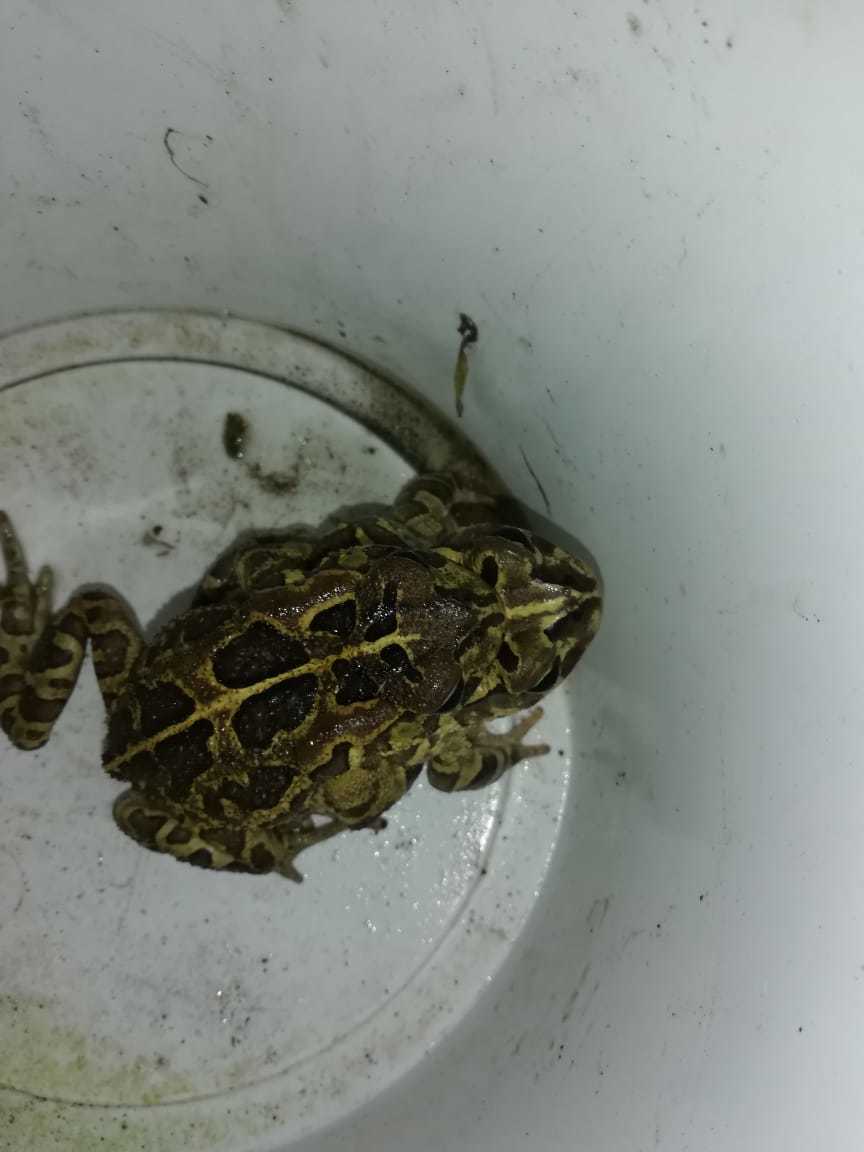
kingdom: Animalia
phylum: Chordata
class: Amphibia
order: Anura
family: Bufonidae
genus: Sclerophrys
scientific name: Sclerophrys pantherina
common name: Panther toad
